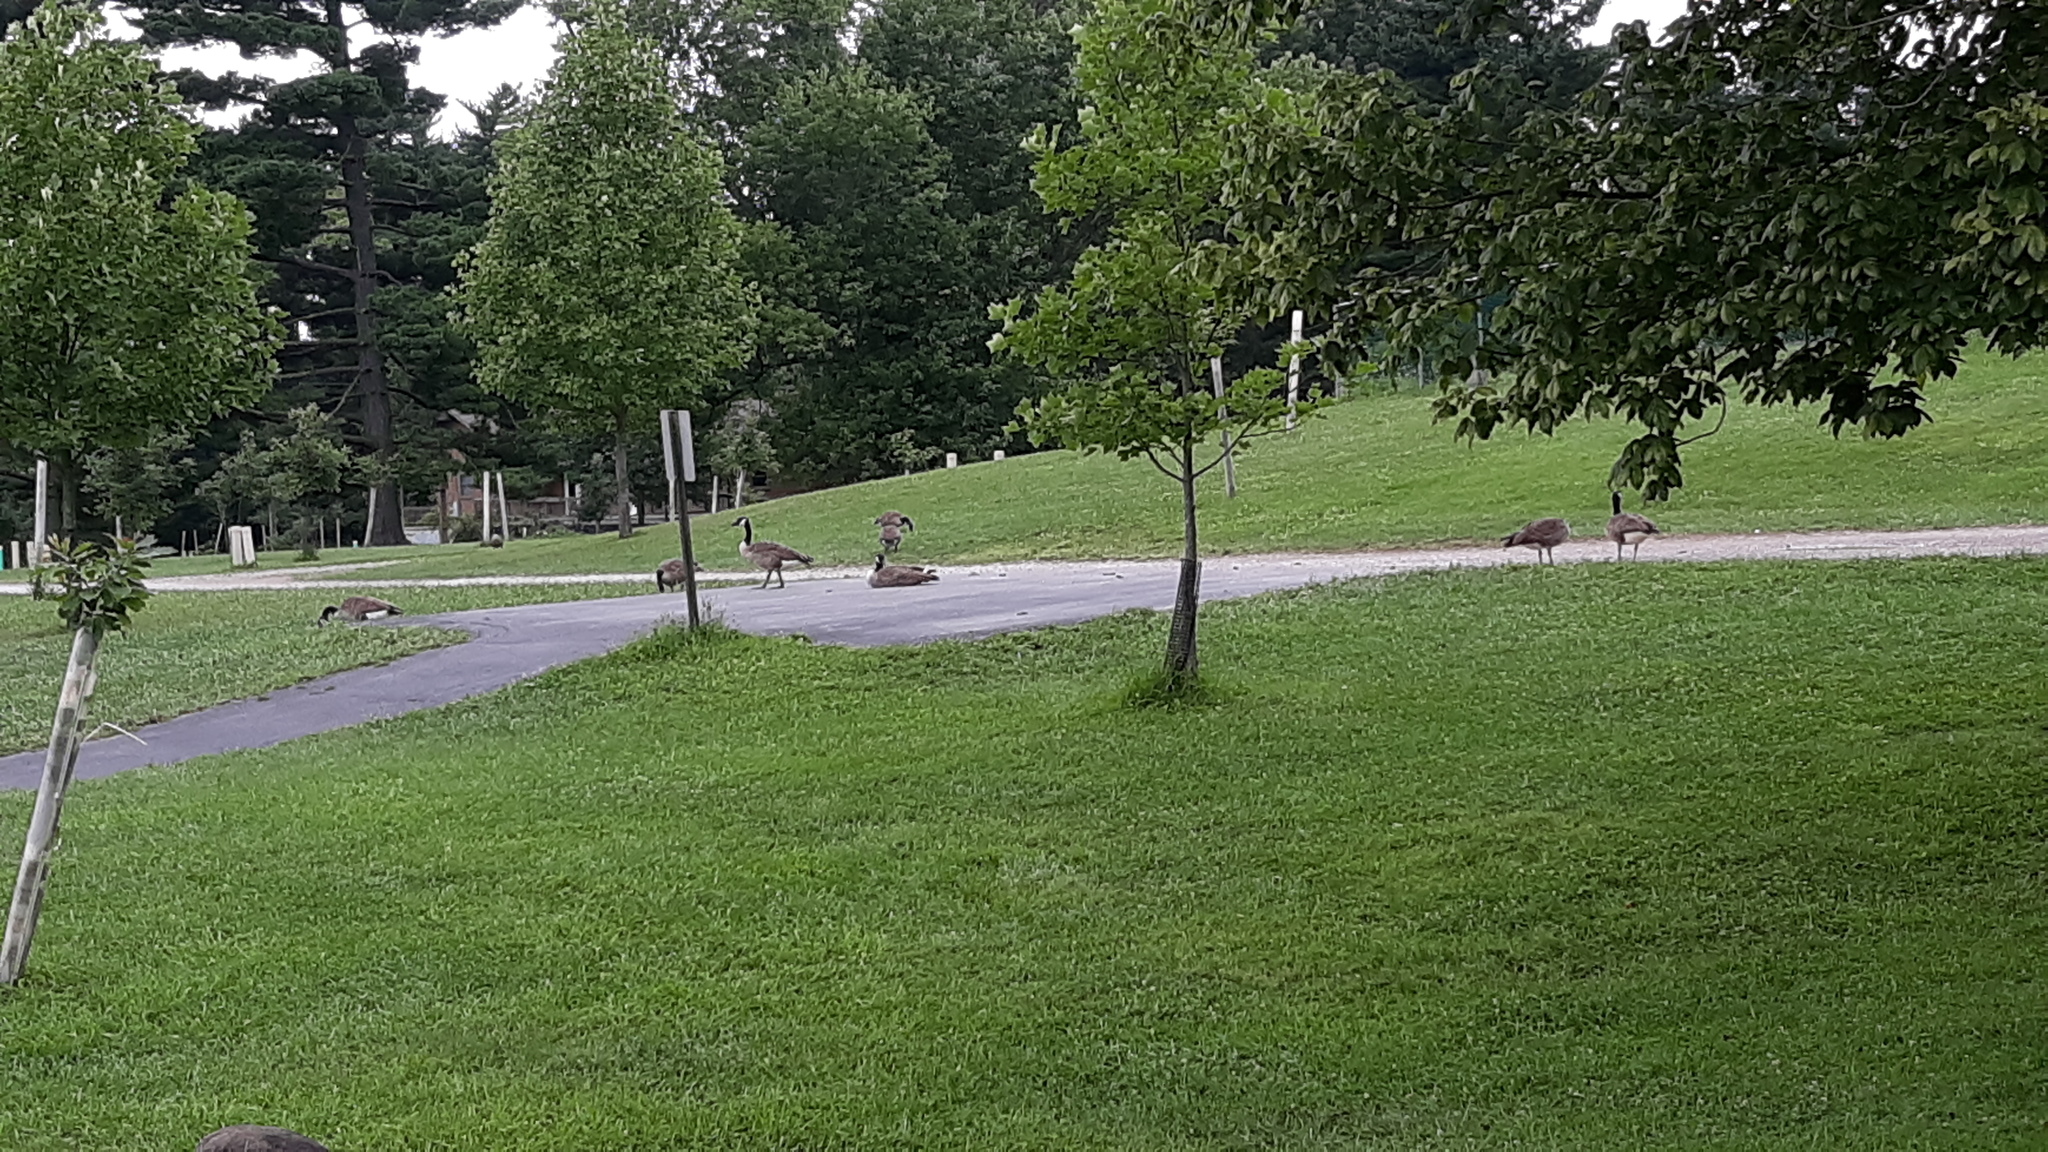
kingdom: Animalia
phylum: Chordata
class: Aves
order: Anseriformes
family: Anatidae
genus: Branta
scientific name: Branta canadensis
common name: Canada goose
